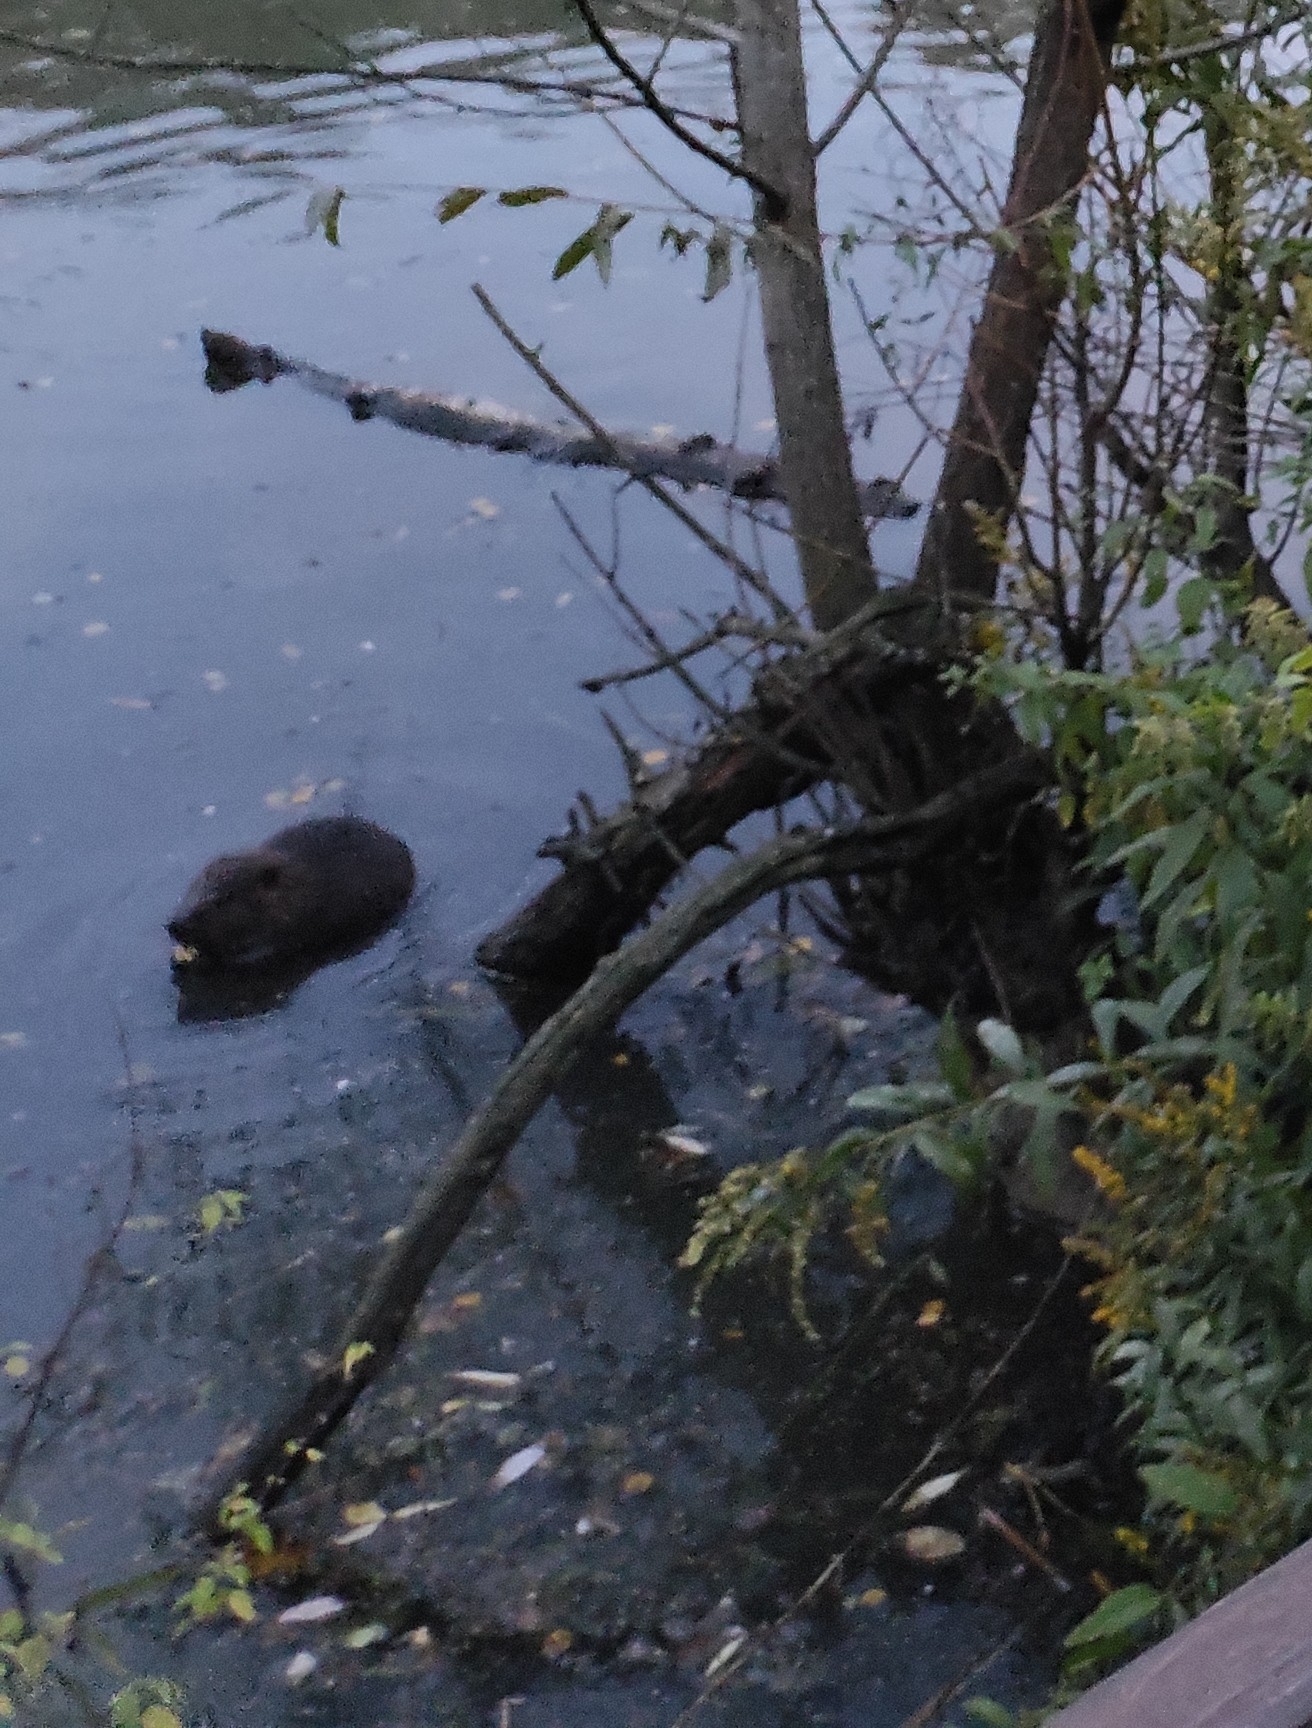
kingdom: Animalia
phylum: Chordata
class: Mammalia
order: Rodentia
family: Castoridae
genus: Castor
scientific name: Castor fiber
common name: Eurasian beaver
